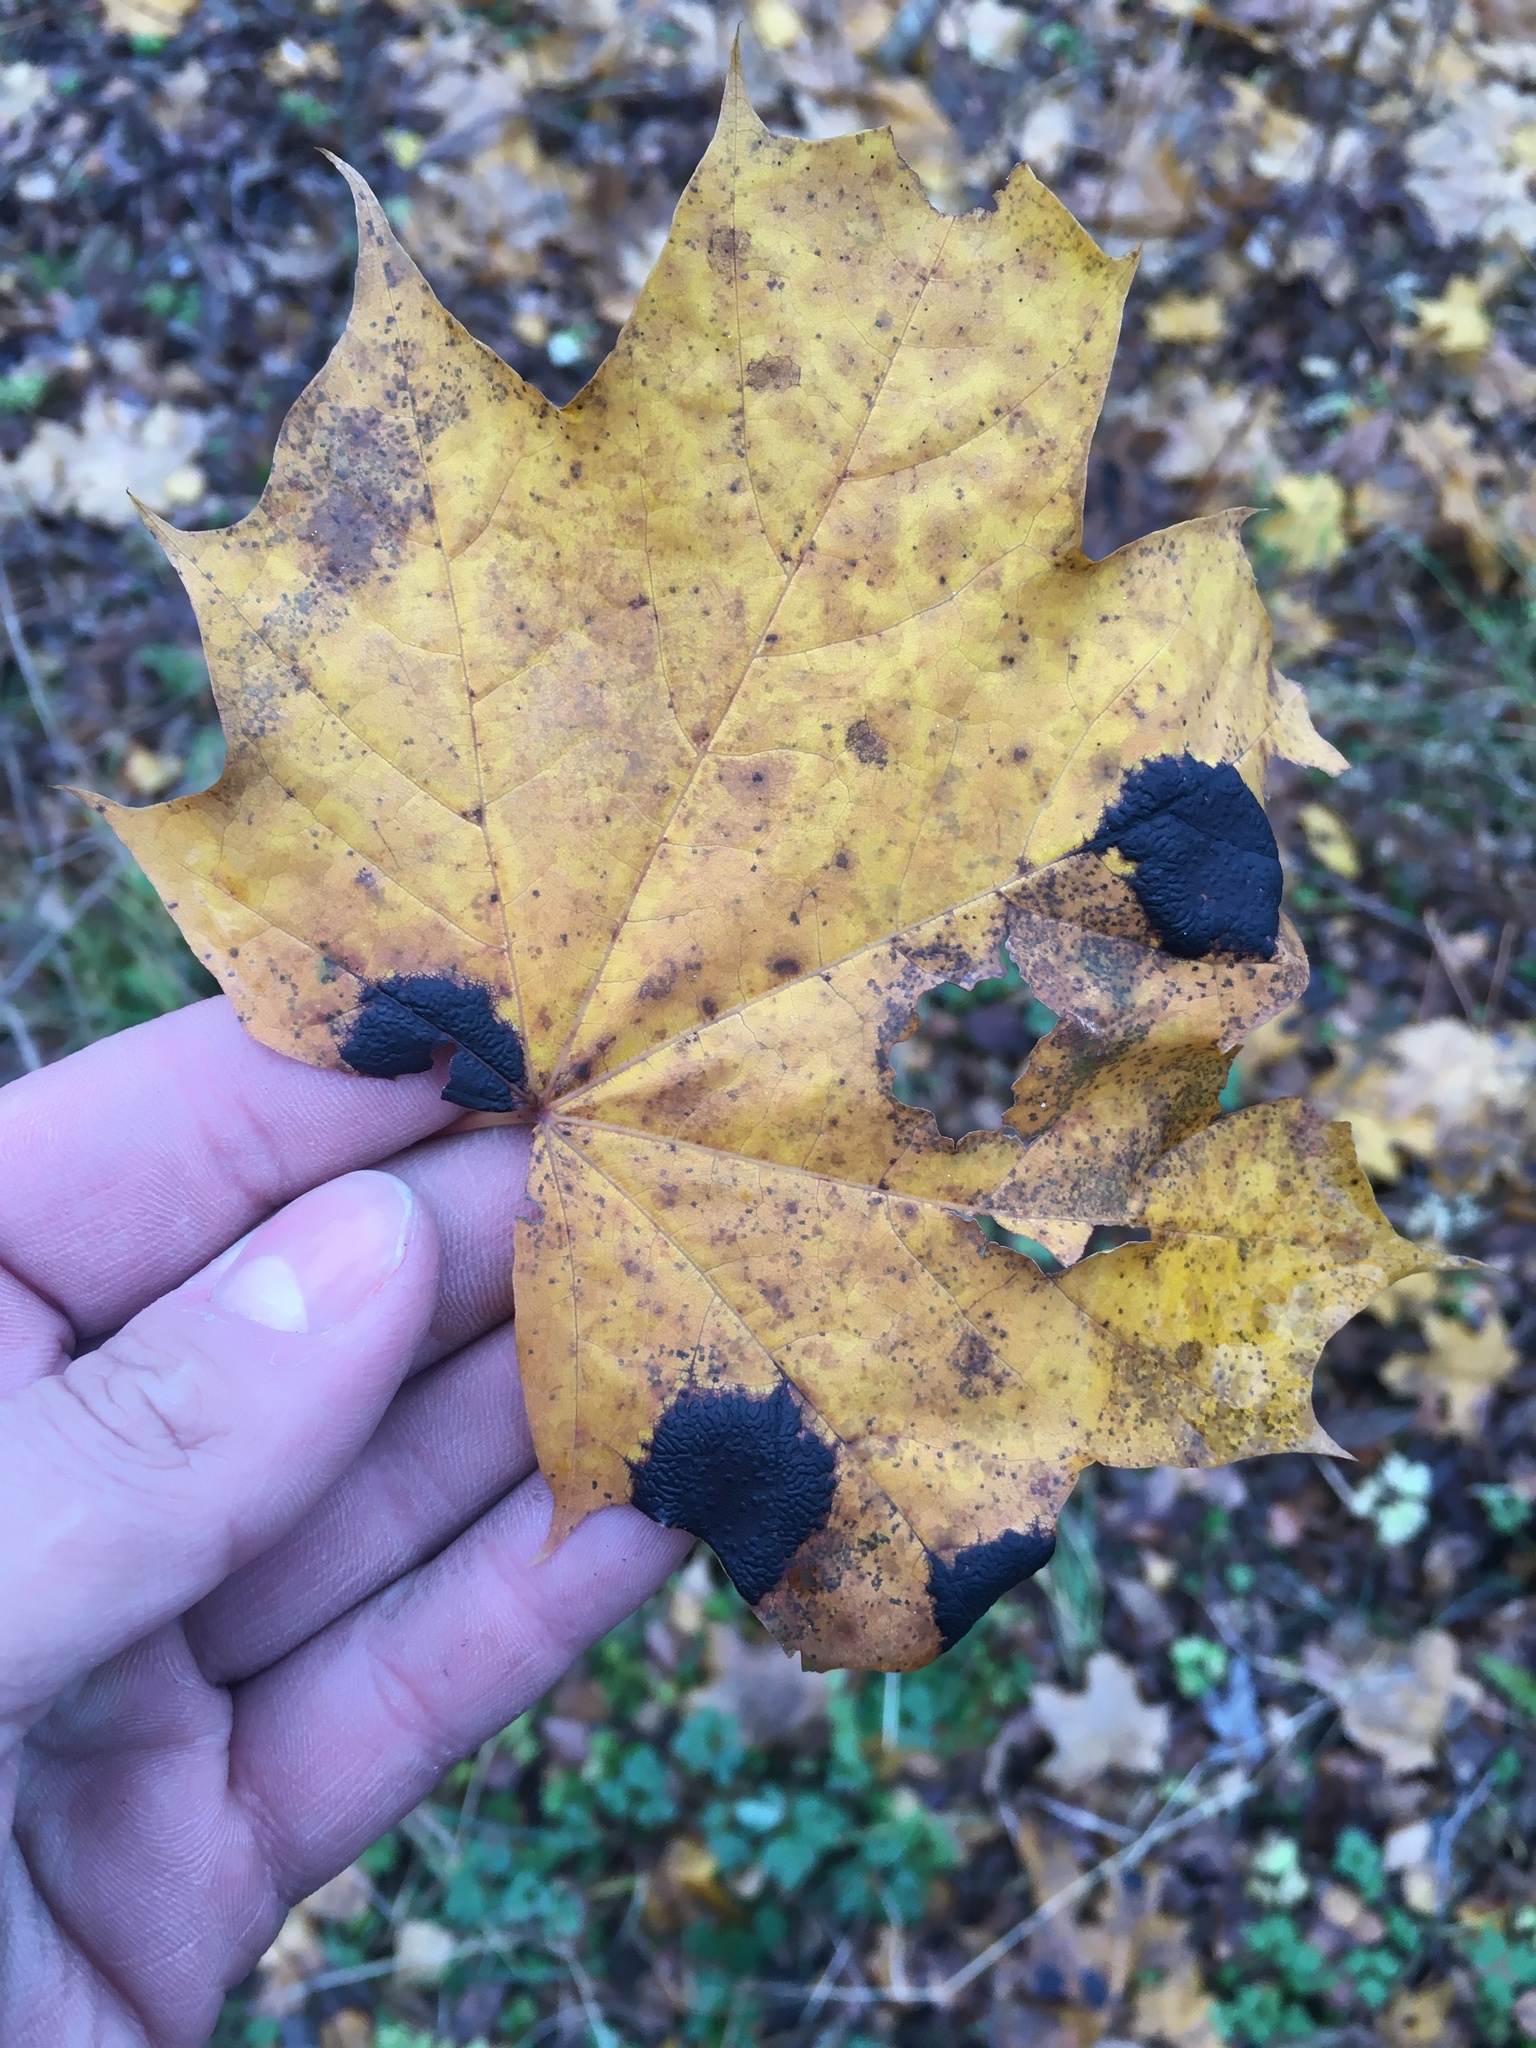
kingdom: Fungi
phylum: Ascomycota
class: Leotiomycetes
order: Rhytismatales
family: Rhytismataceae
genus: Rhytisma
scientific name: Rhytisma acerinum
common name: European tar spot
